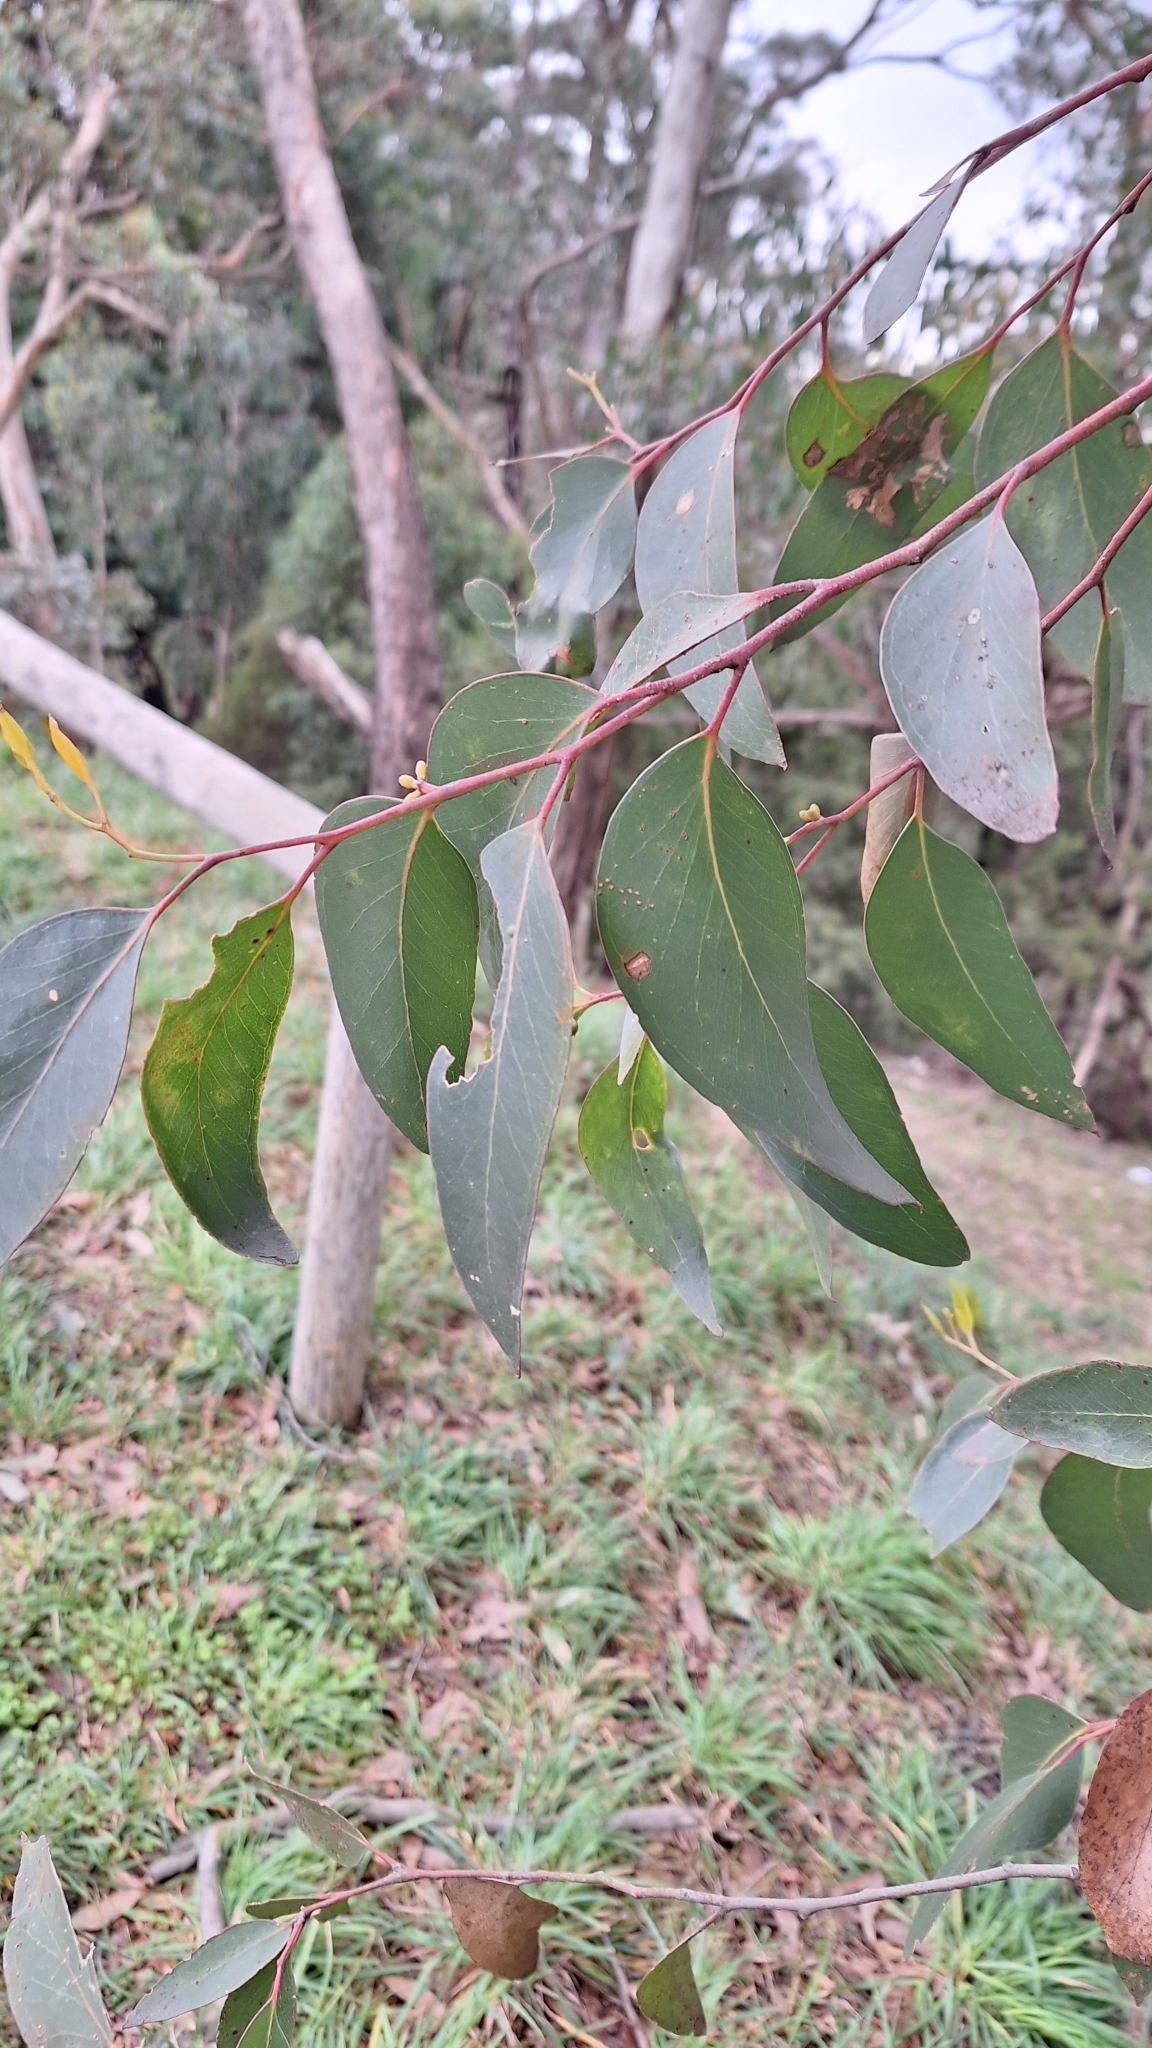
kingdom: Plantae
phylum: Tracheophyta
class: Magnoliopsida
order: Myrtales
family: Myrtaceae
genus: Eucalyptus
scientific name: Eucalyptus baxteri
